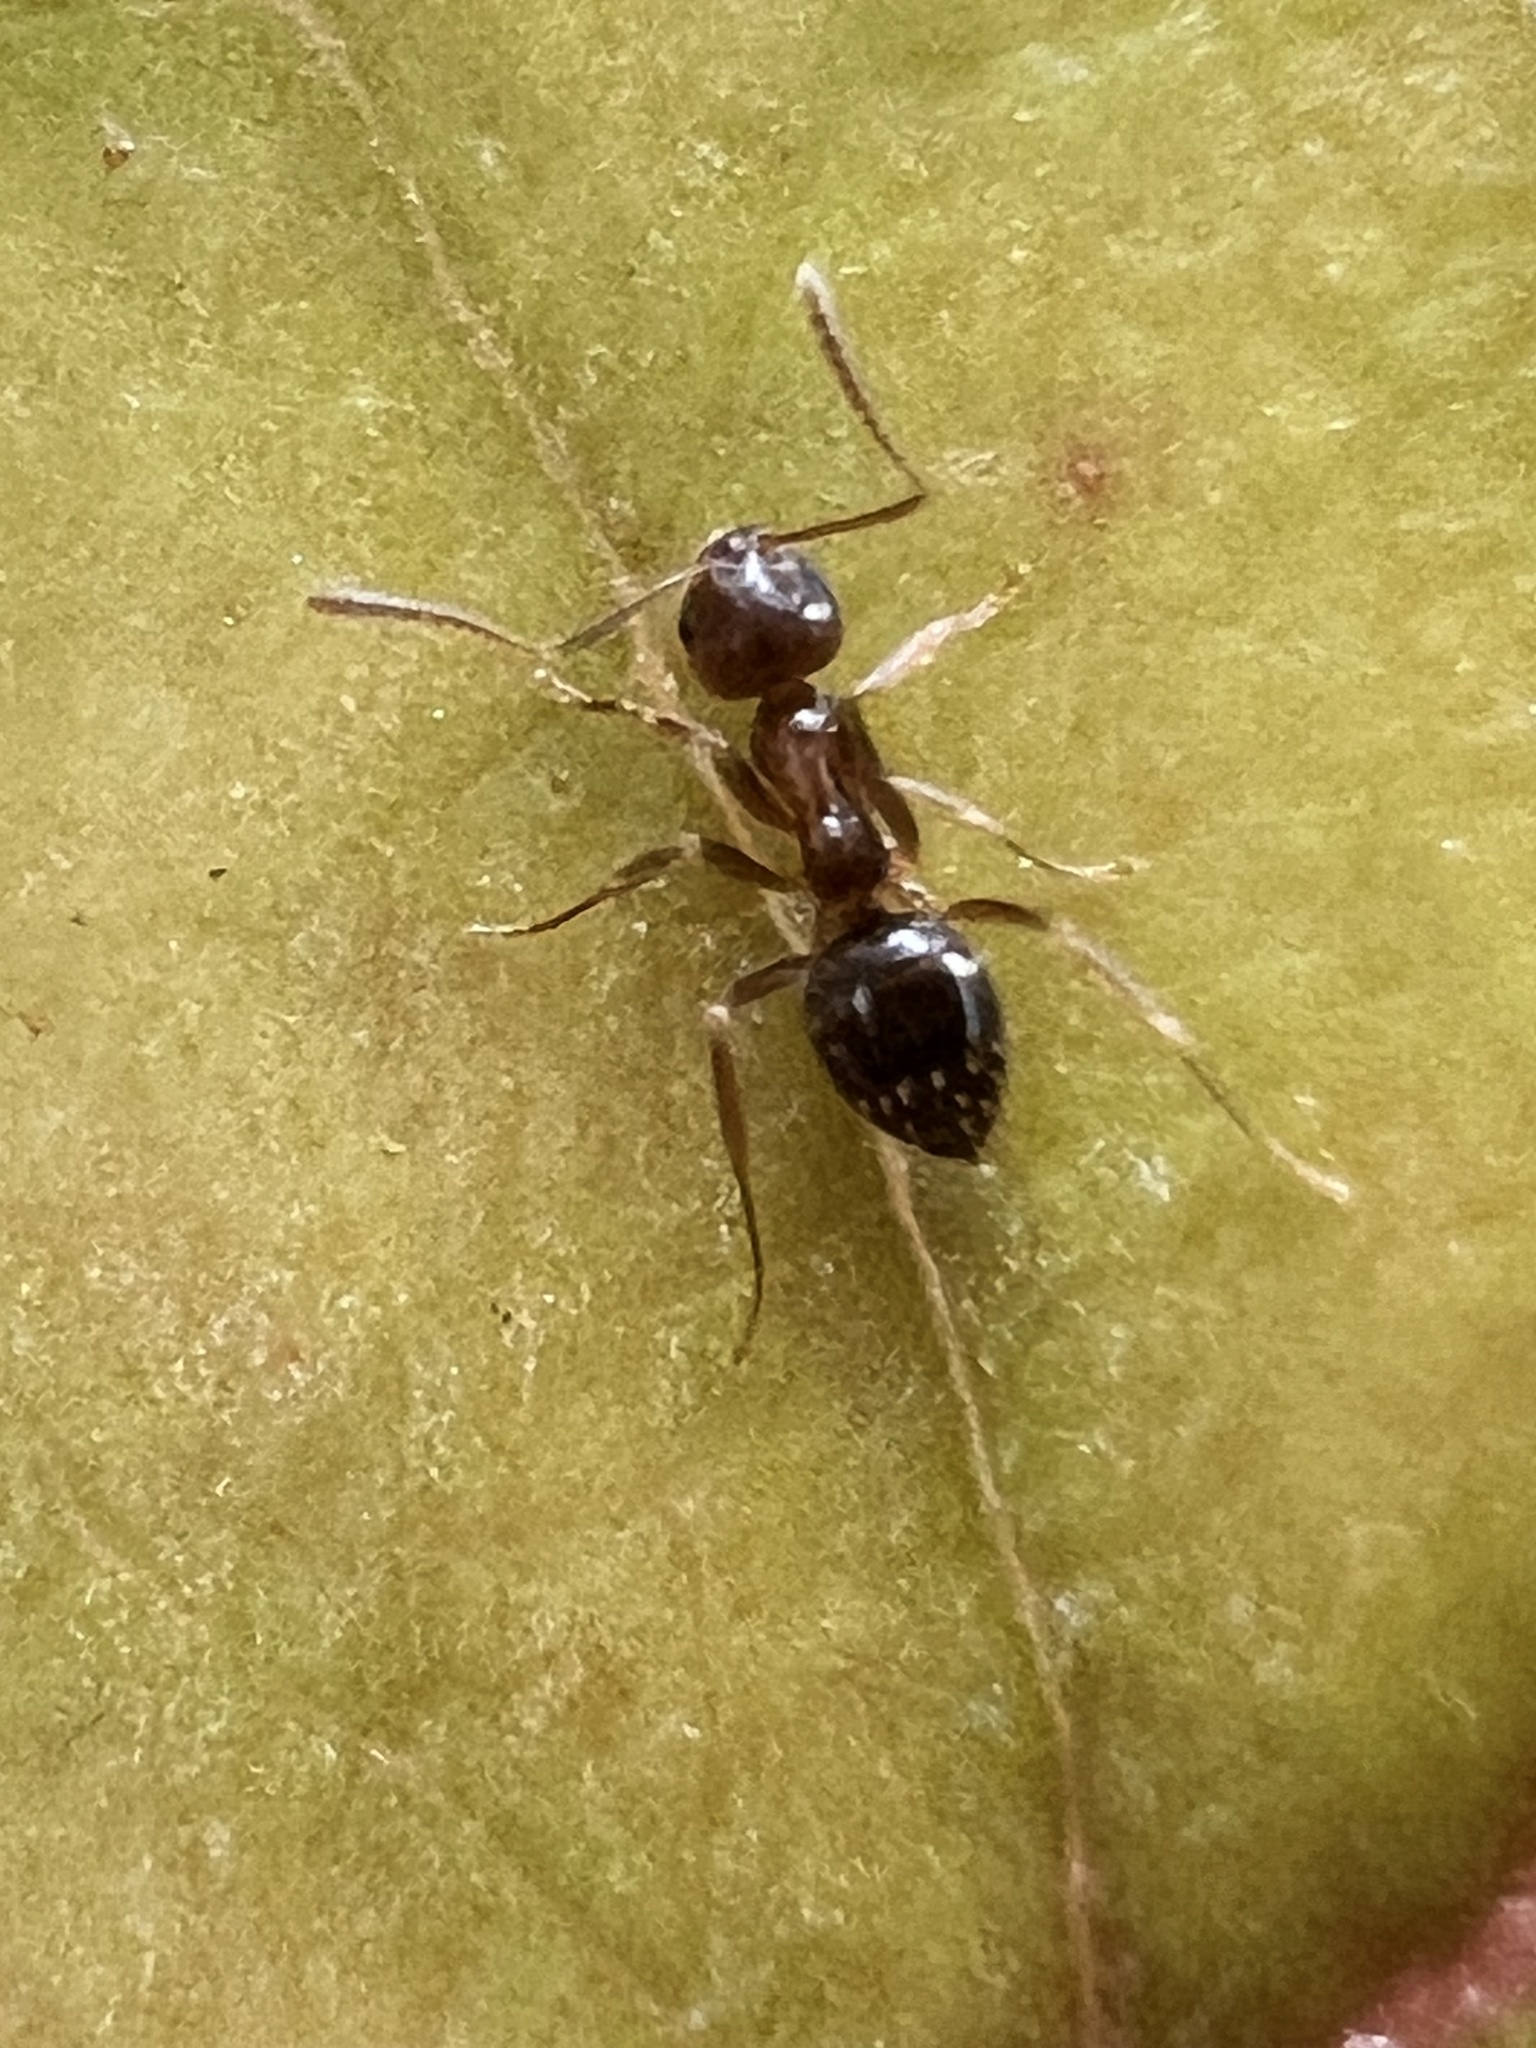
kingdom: Animalia
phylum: Arthropoda
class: Insecta
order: Hymenoptera
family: Formicidae
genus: Prolasius
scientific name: Prolasius advenus
